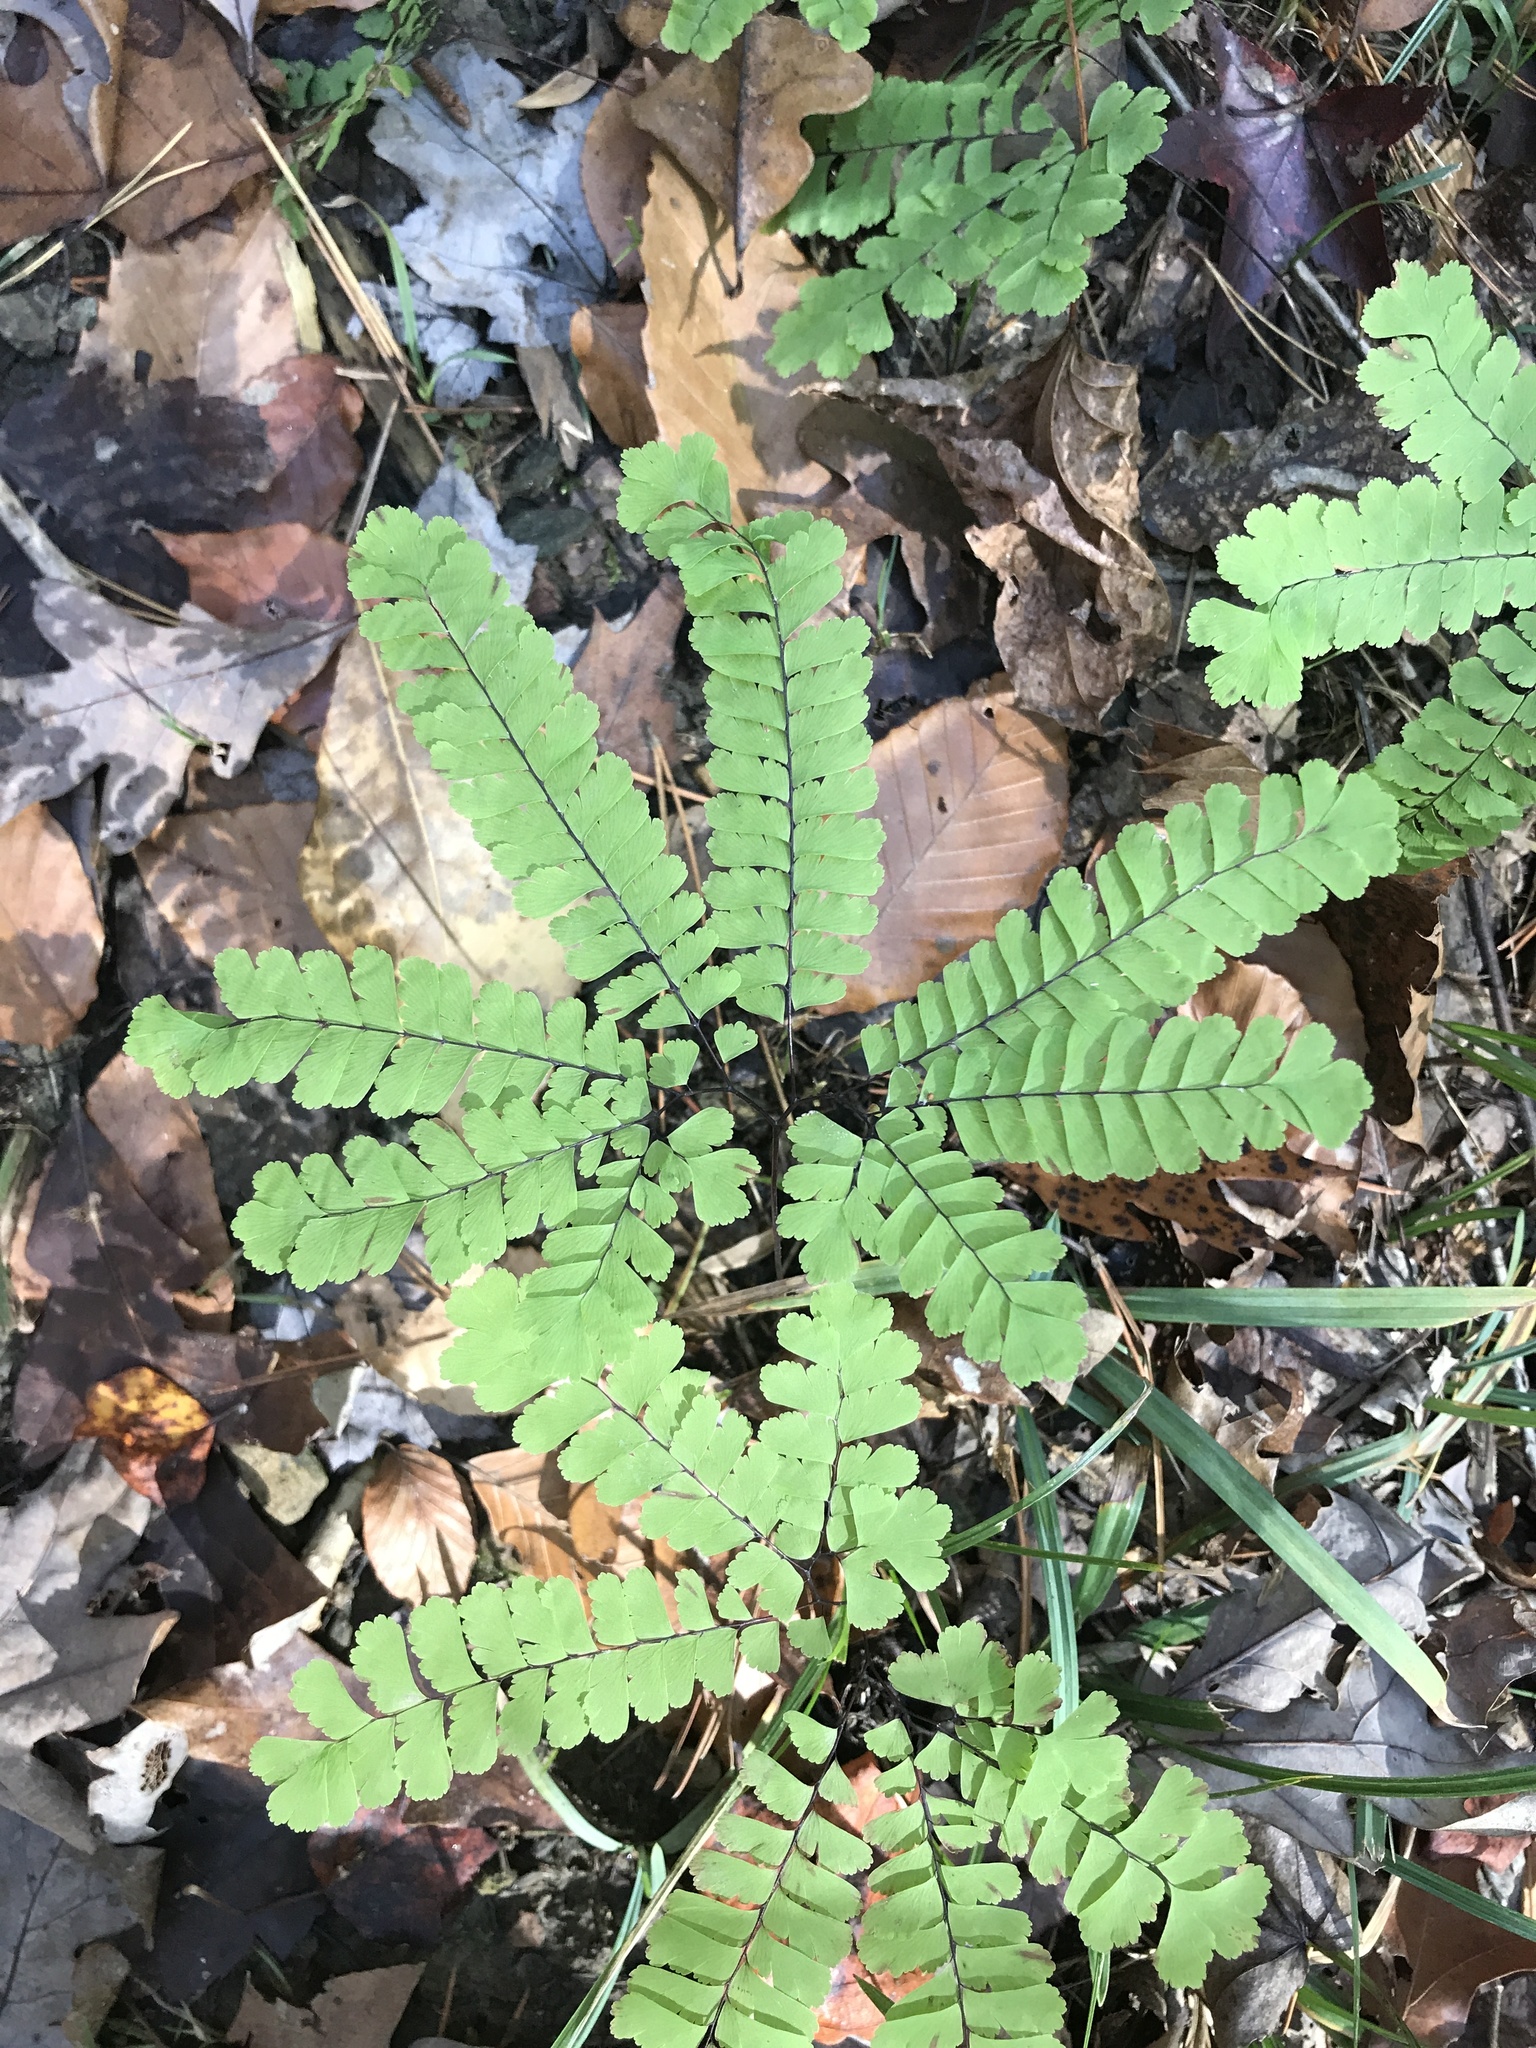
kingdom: Plantae
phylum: Tracheophyta
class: Polypodiopsida
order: Polypodiales
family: Pteridaceae
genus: Adiantum
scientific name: Adiantum pedatum
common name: Five-finger fern
